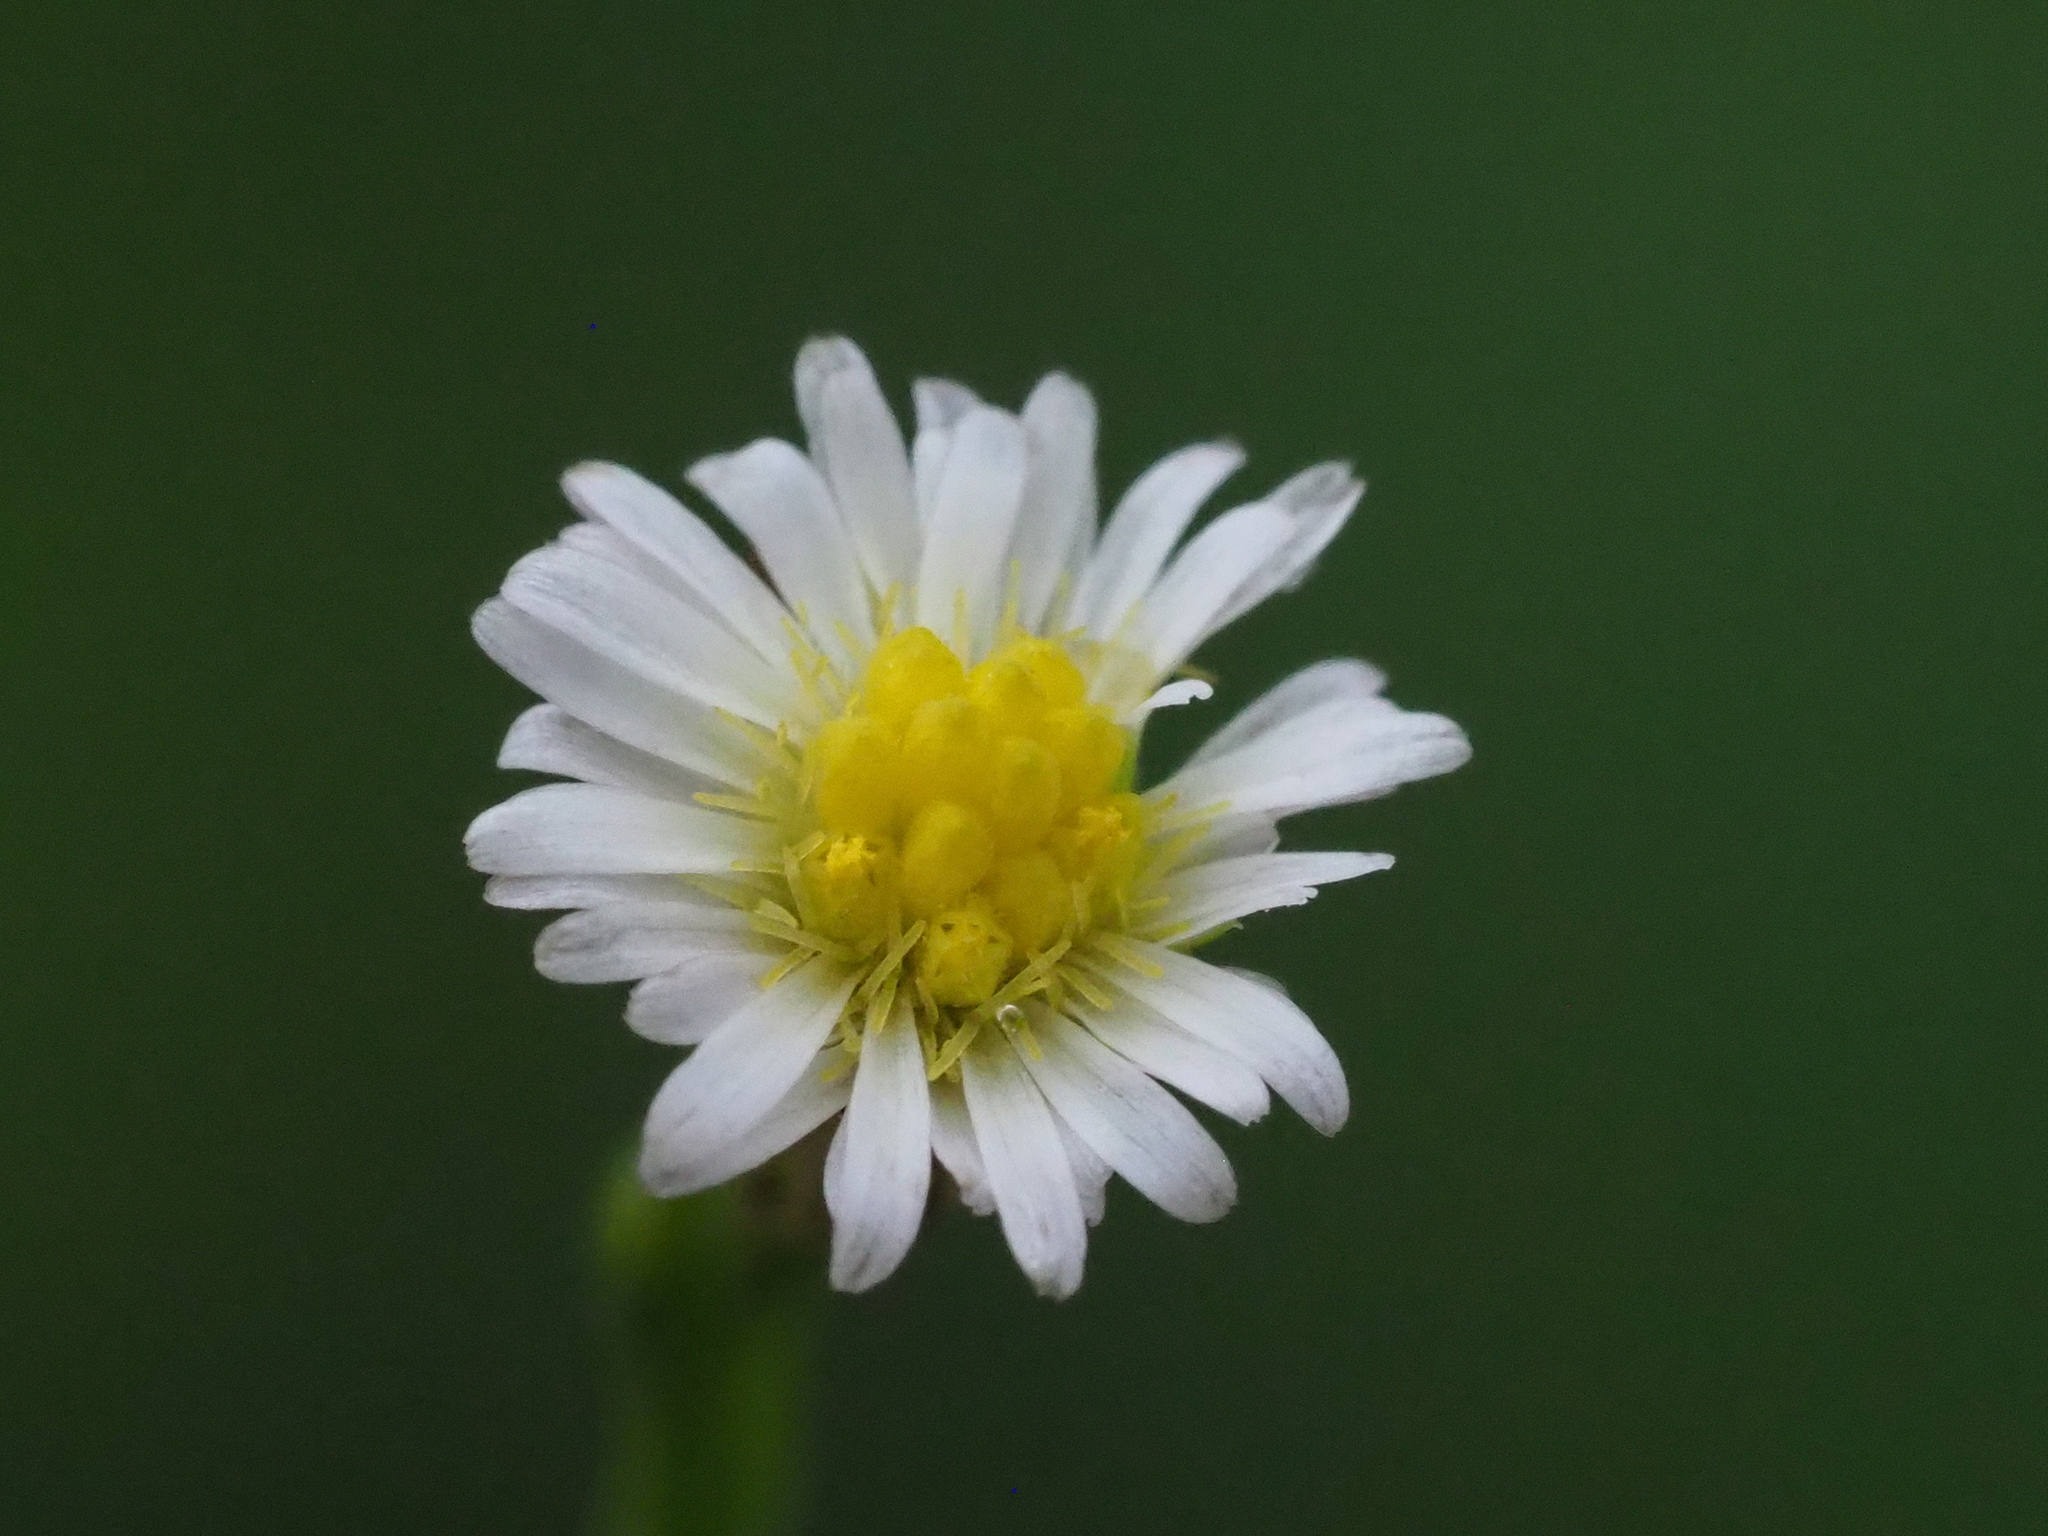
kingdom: Plantae
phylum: Tracheophyta
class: Magnoliopsida
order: Asterales
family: Asteraceae
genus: Symphyotrichum
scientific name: Symphyotrichum subulatum
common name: Annual saltmarsh aster
